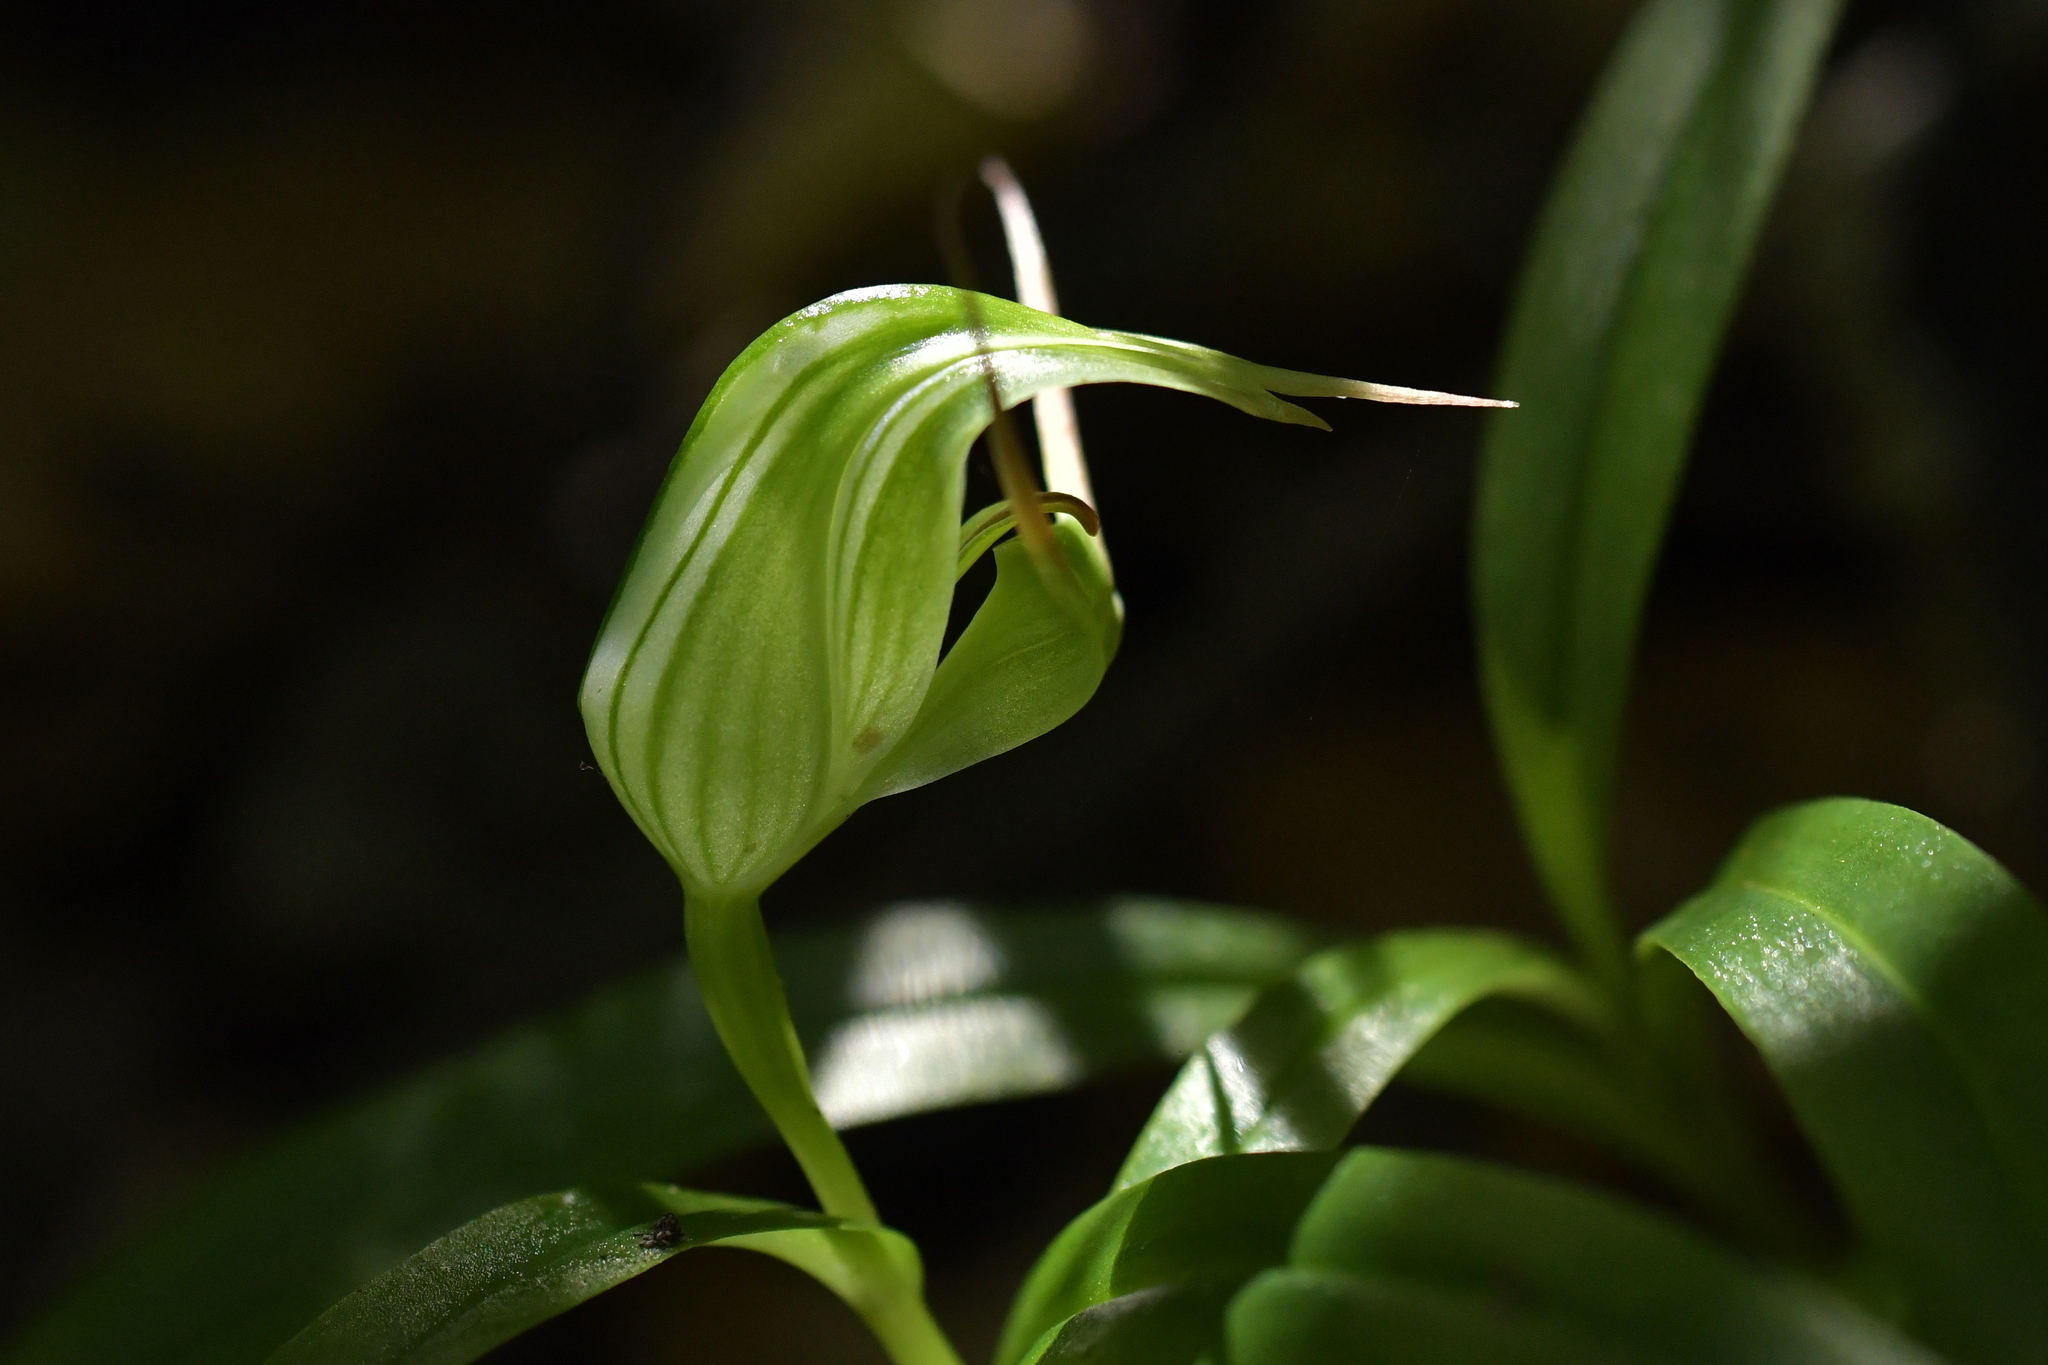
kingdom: Plantae
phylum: Tracheophyta
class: Liliopsida
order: Asparagales
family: Orchidaceae
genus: Pterostylis
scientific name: Pterostylis banksii
